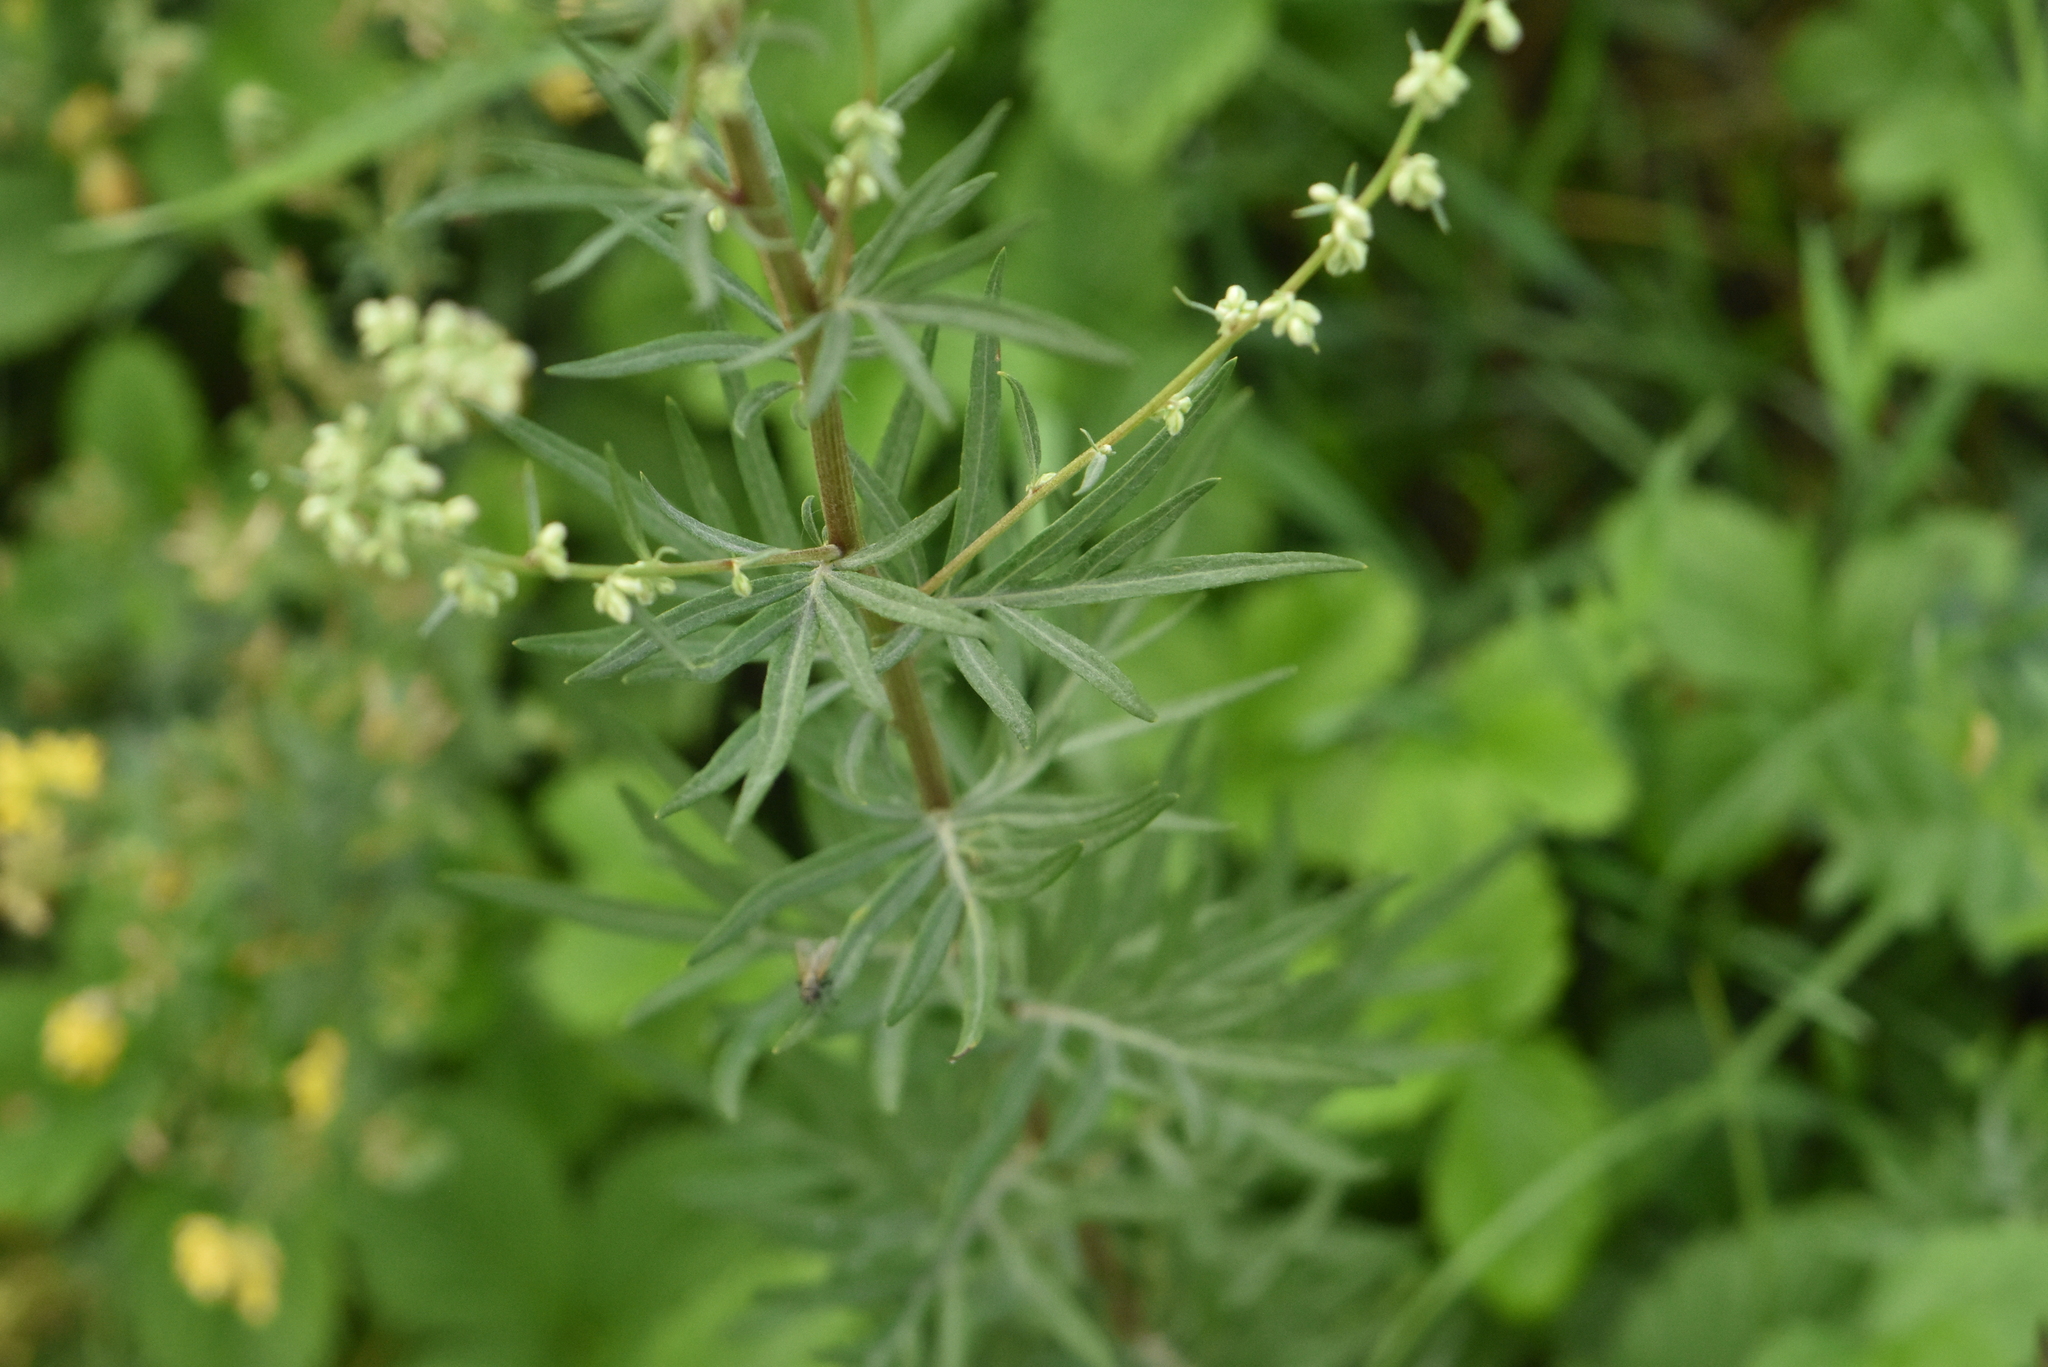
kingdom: Plantae
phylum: Tracheophyta
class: Magnoliopsida
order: Asterales
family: Asteraceae
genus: Artemisia
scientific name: Artemisia vulgaris
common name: Mugwort
